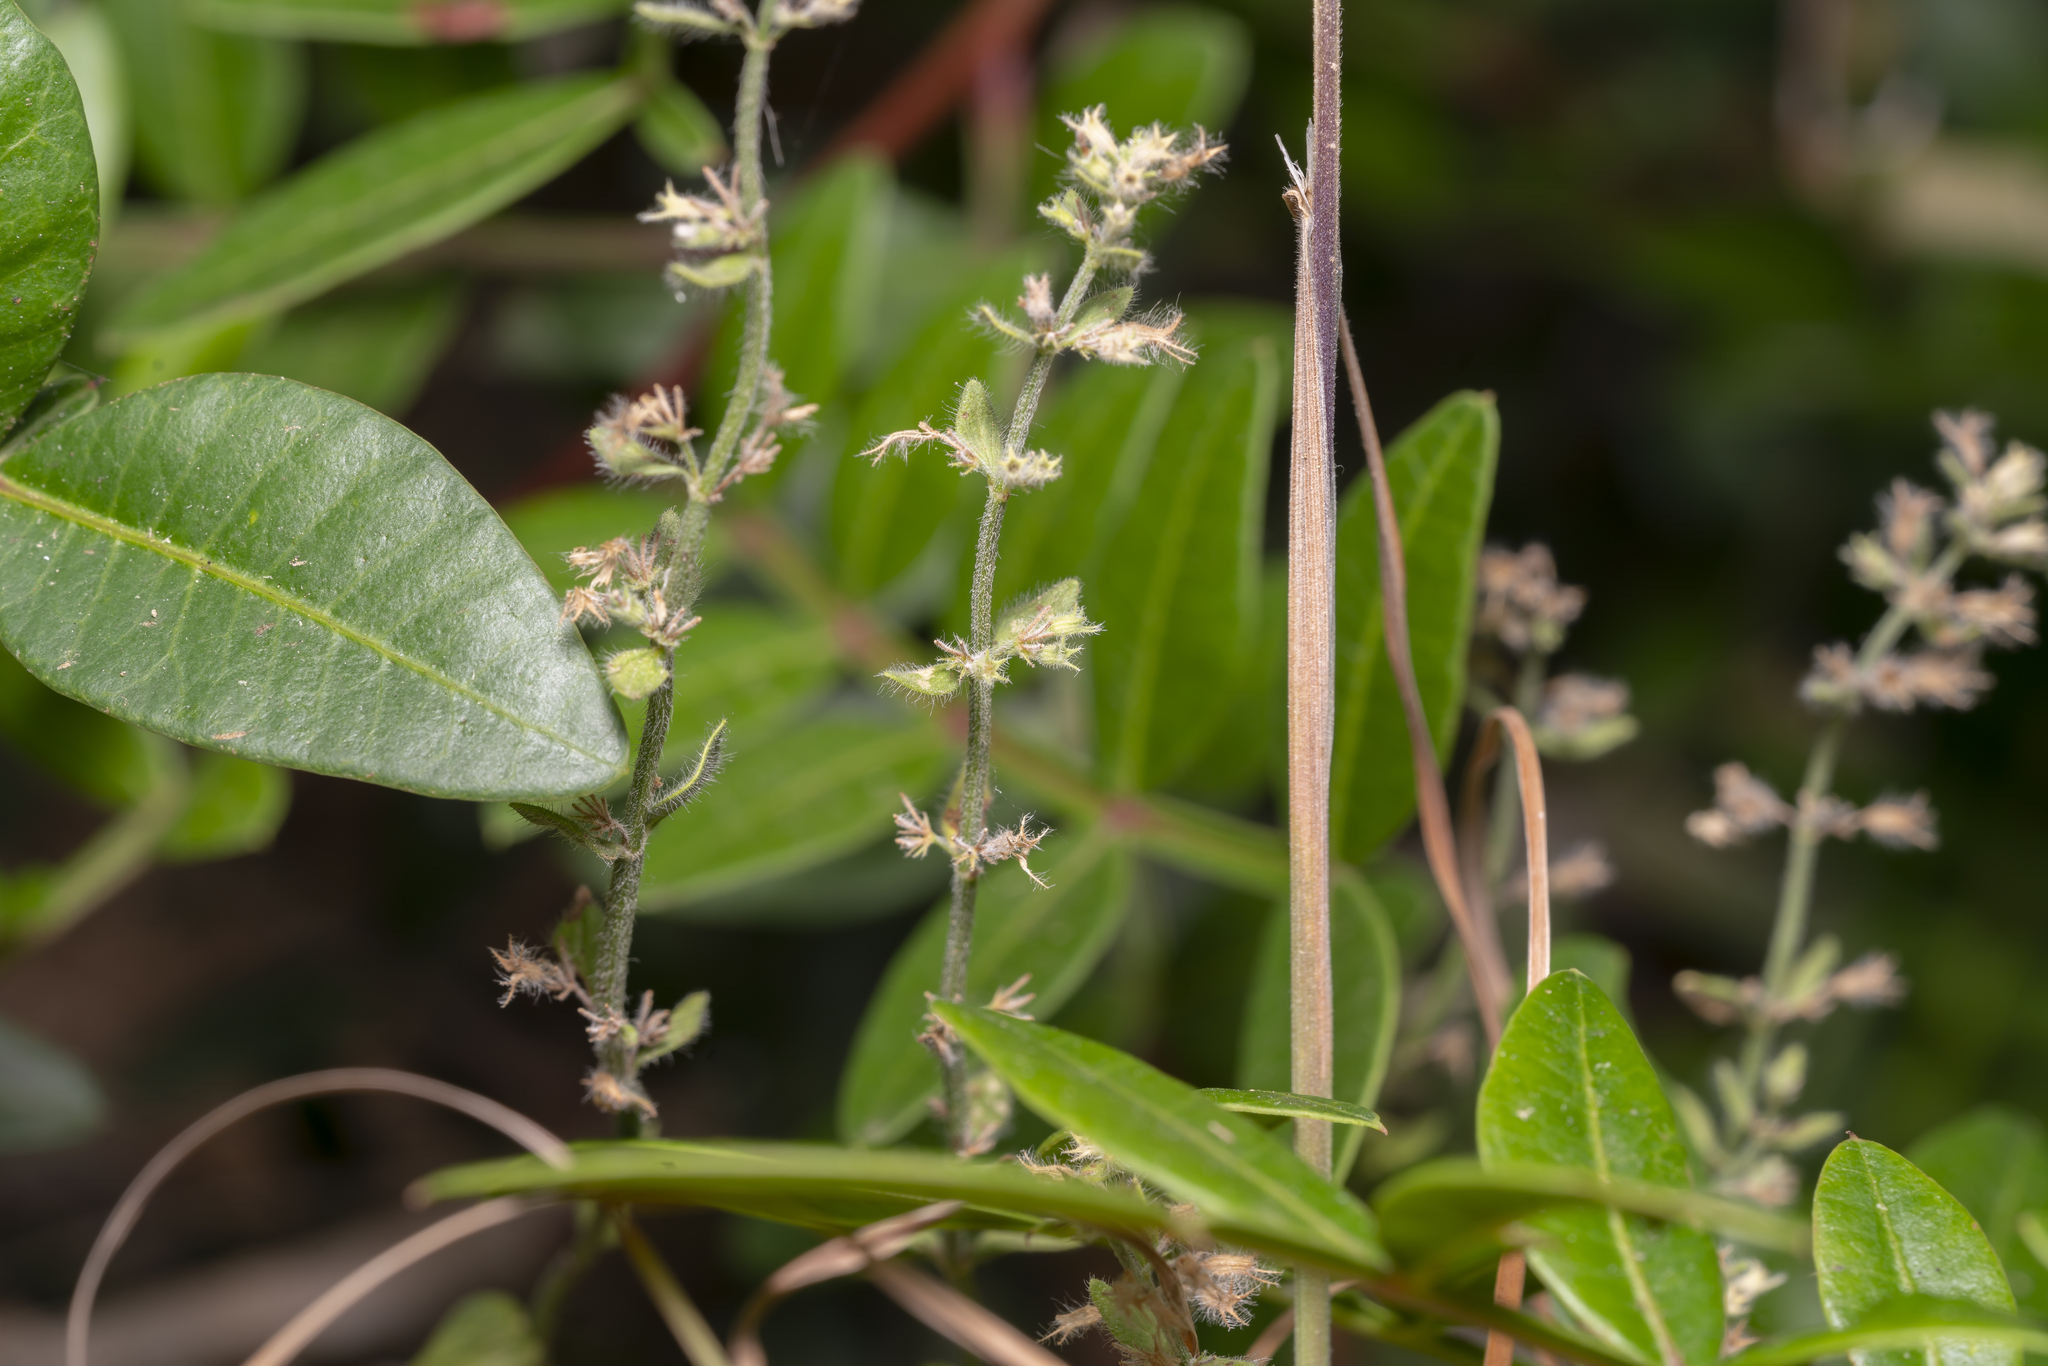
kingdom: Plantae
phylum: Tracheophyta
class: Magnoliopsida
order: Lamiales
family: Lamiaceae
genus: Micromeria
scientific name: Micromeria nervosa
